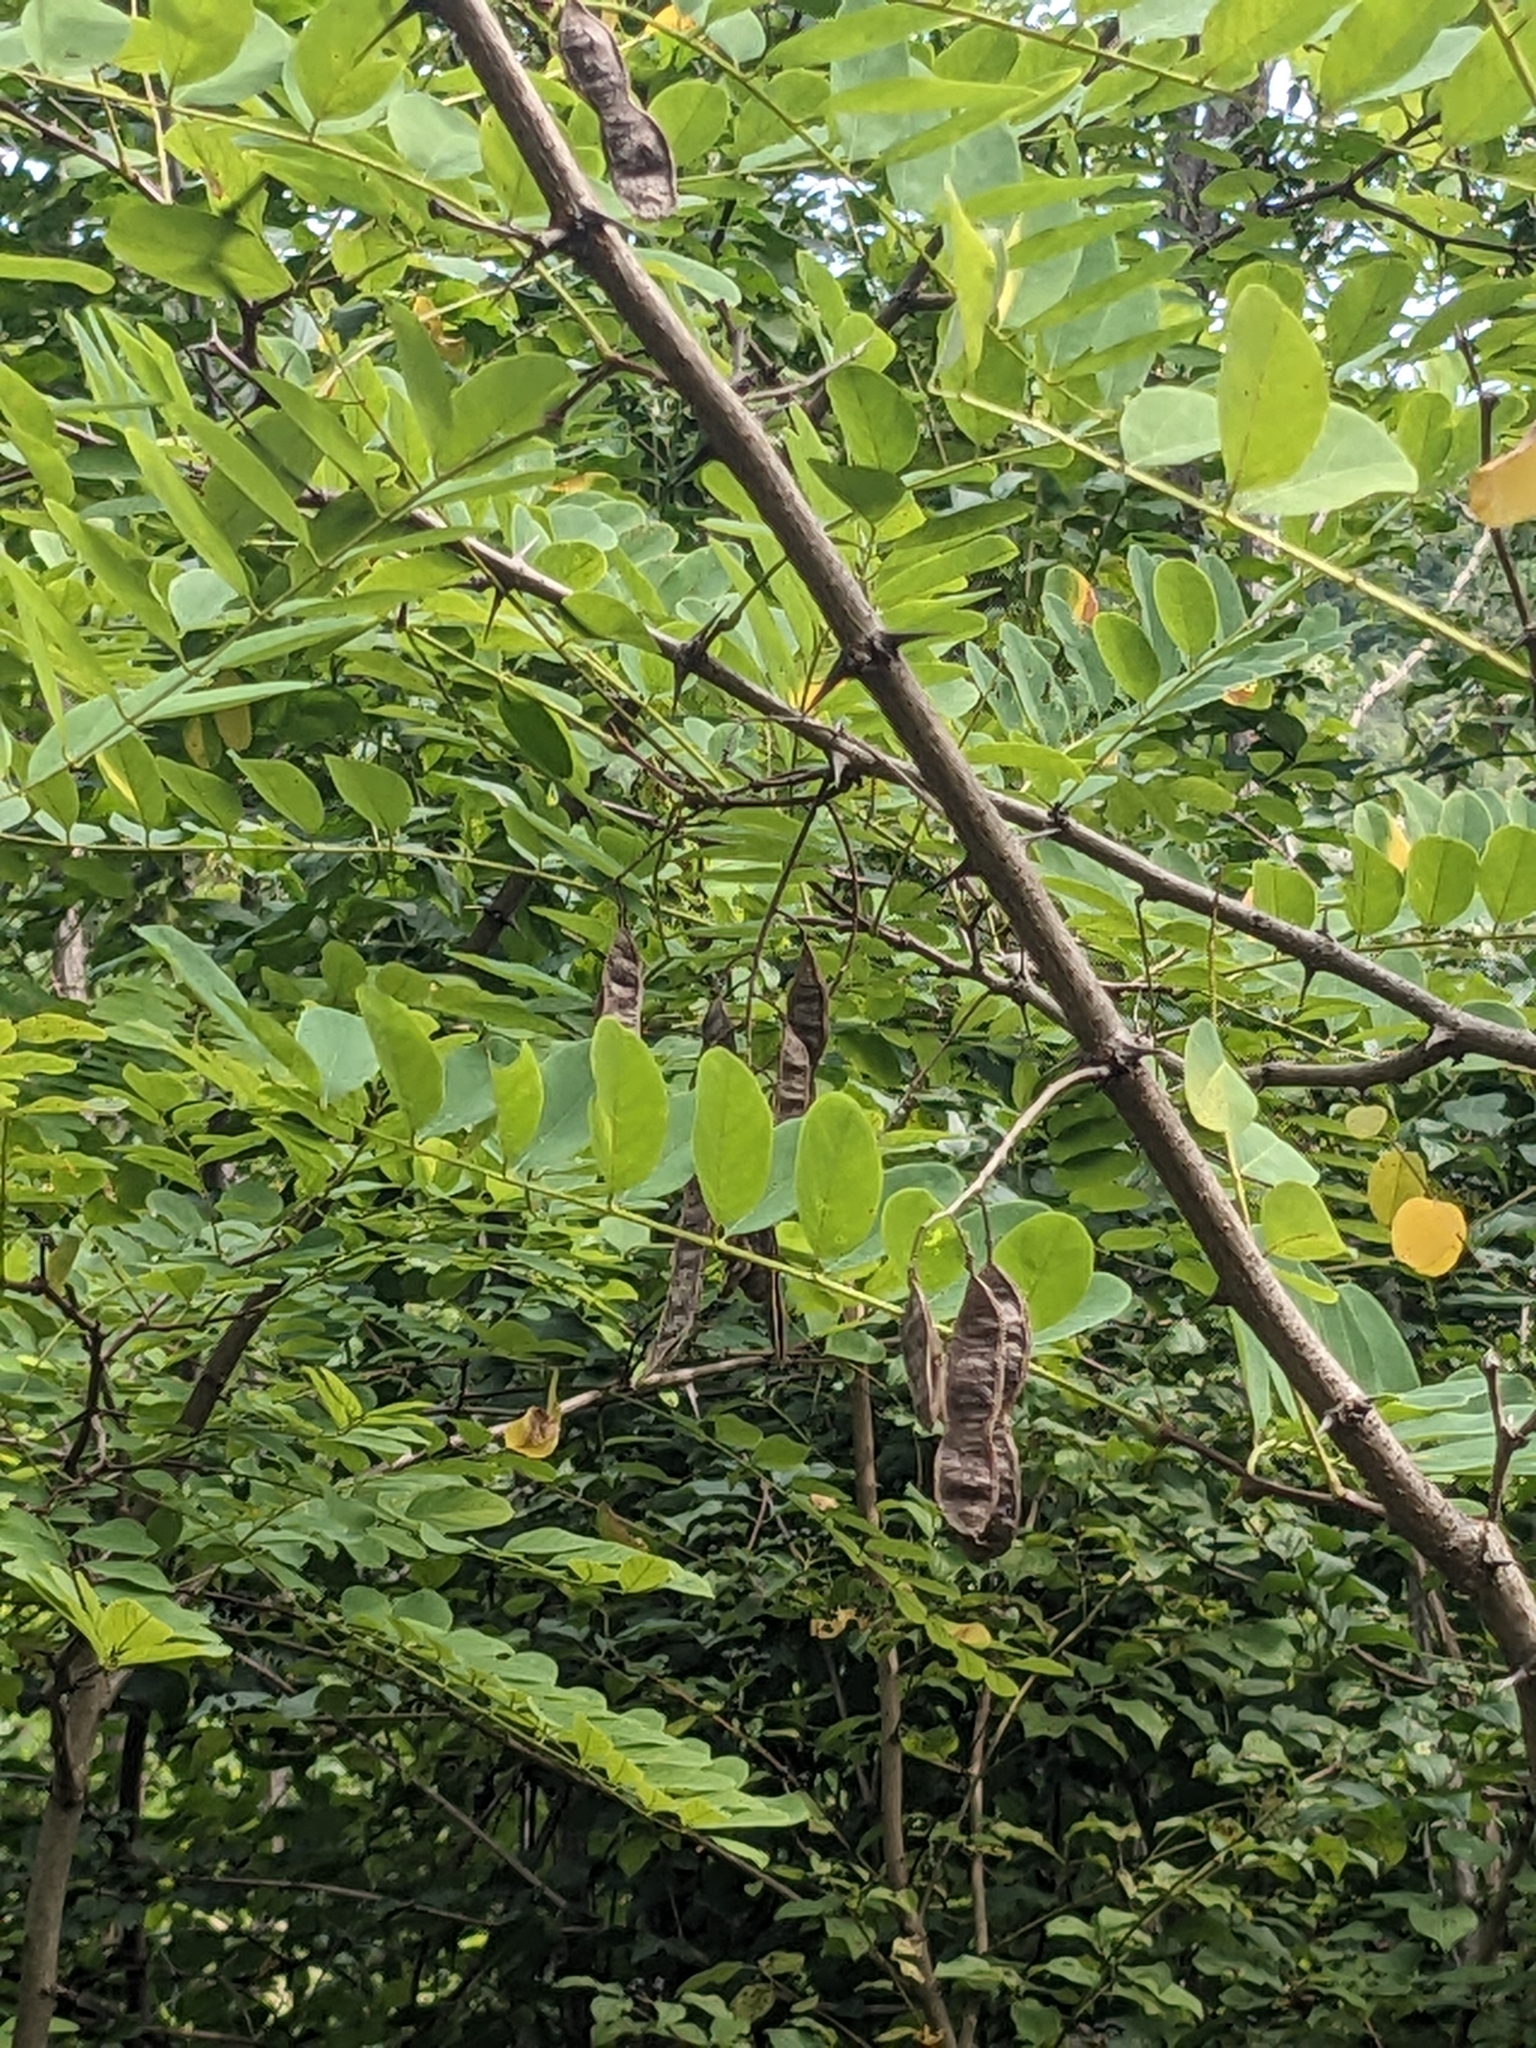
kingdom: Plantae
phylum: Tracheophyta
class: Magnoliopsida
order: Fabales
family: Fabaceae
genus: Robinia
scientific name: Robinia pseudoacacia
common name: Black locust
